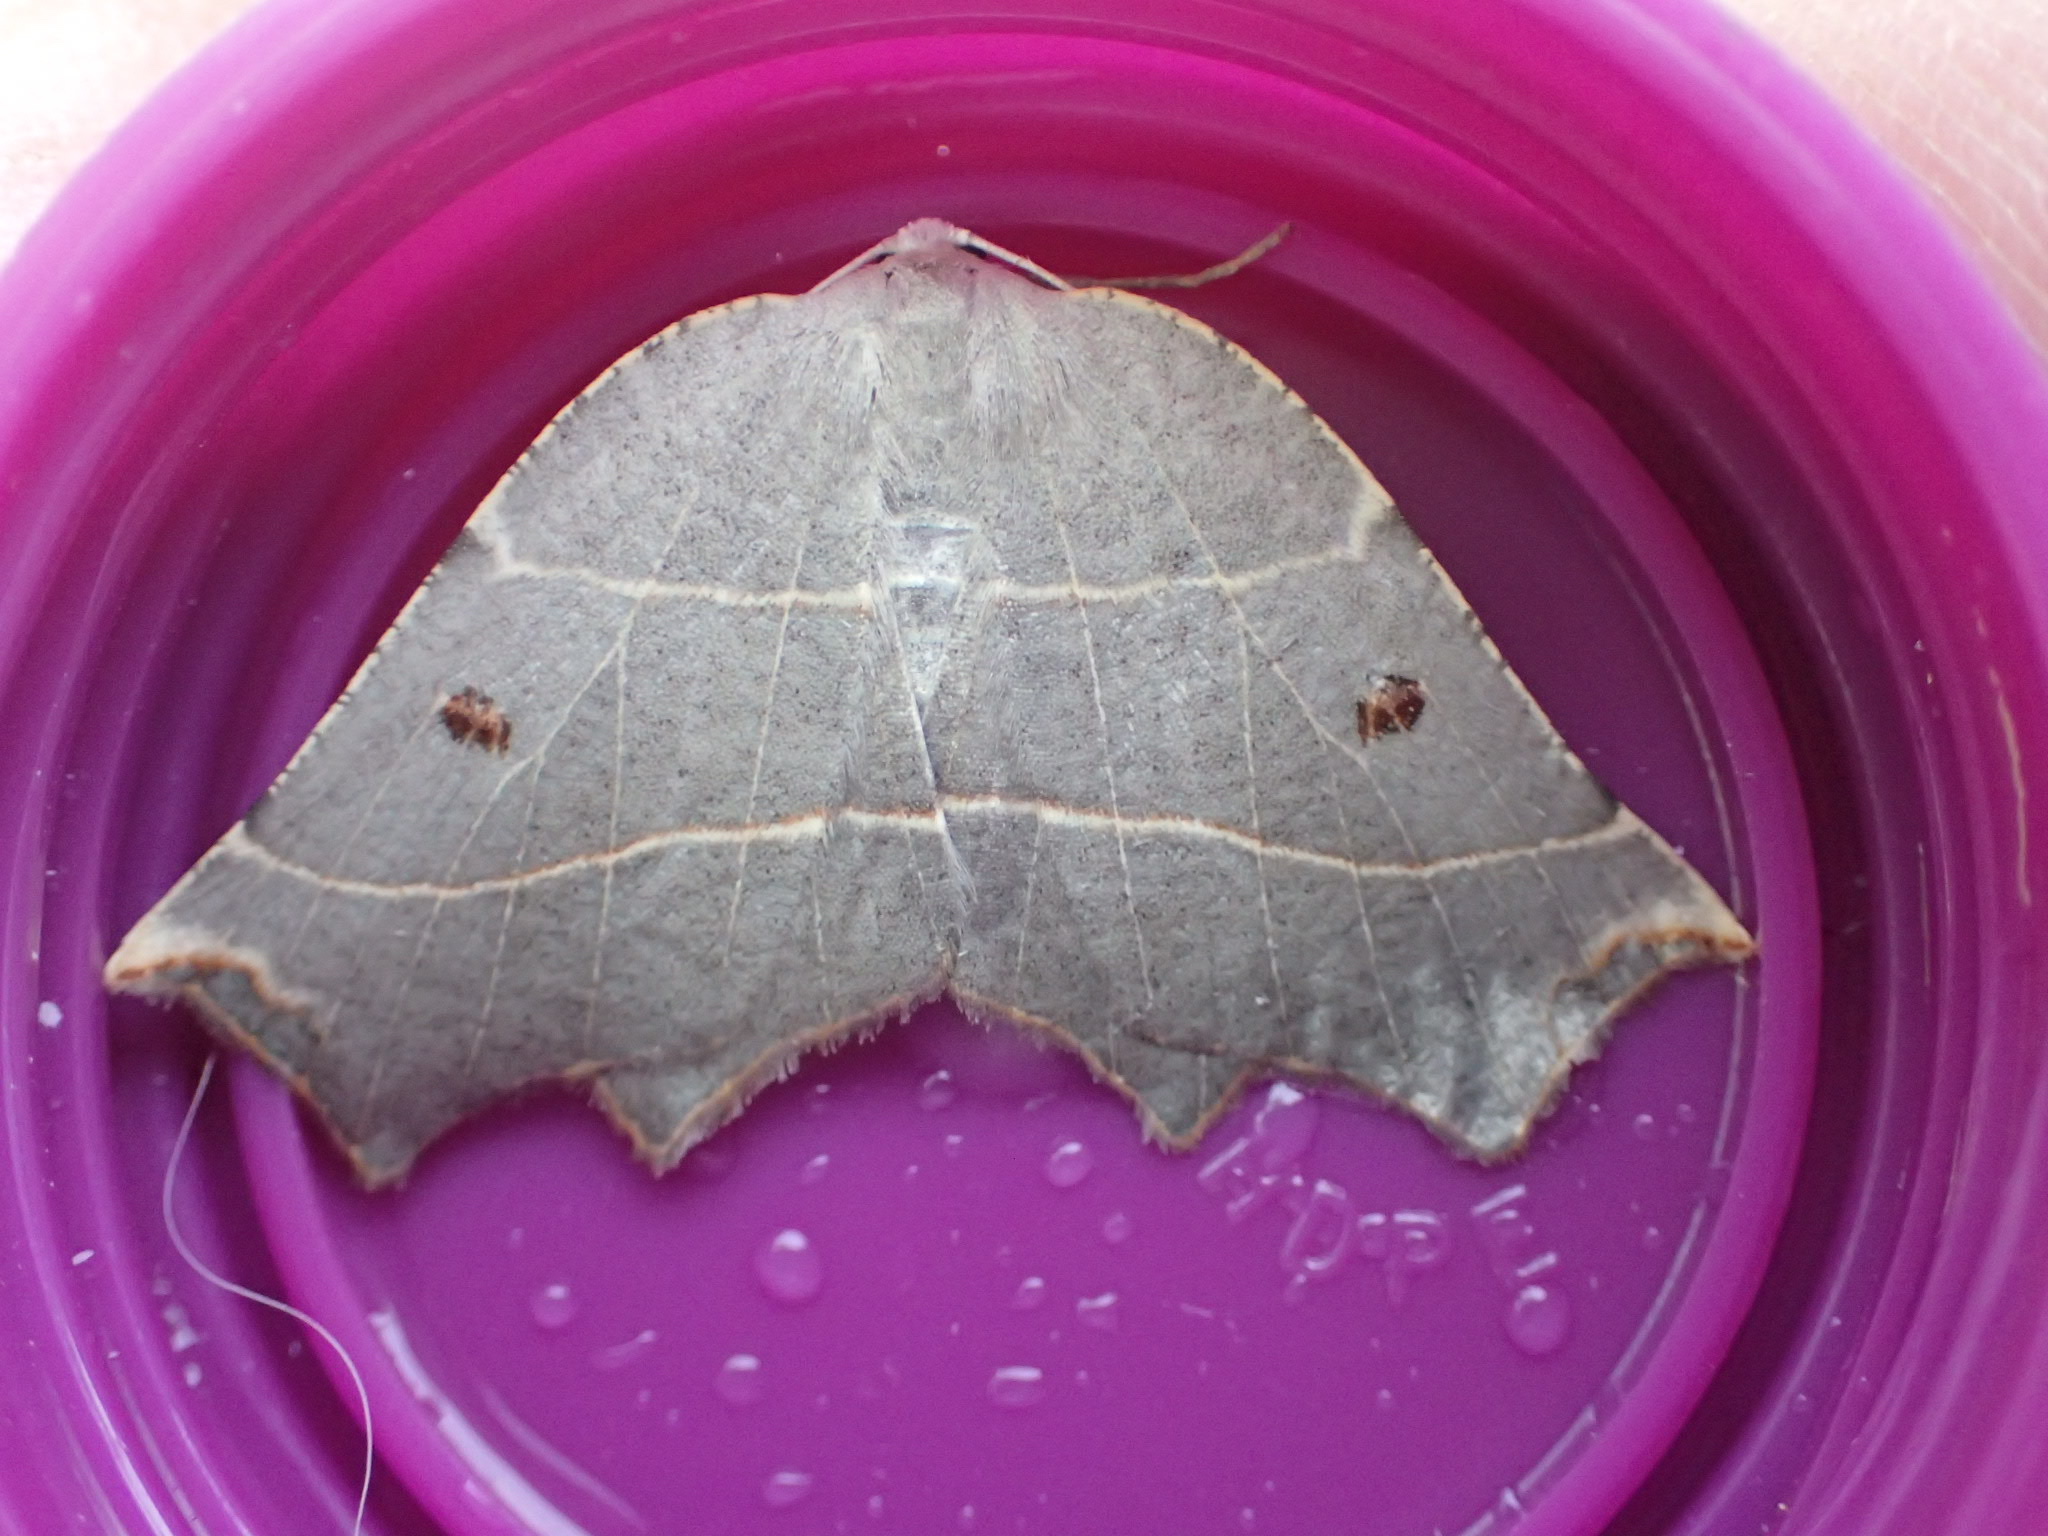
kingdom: Animalia
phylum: Arthropoda
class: Insecta
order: Lepidoptera
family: Geometridae
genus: Metanema
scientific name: Metanema inatomaria
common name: Pale metanema
